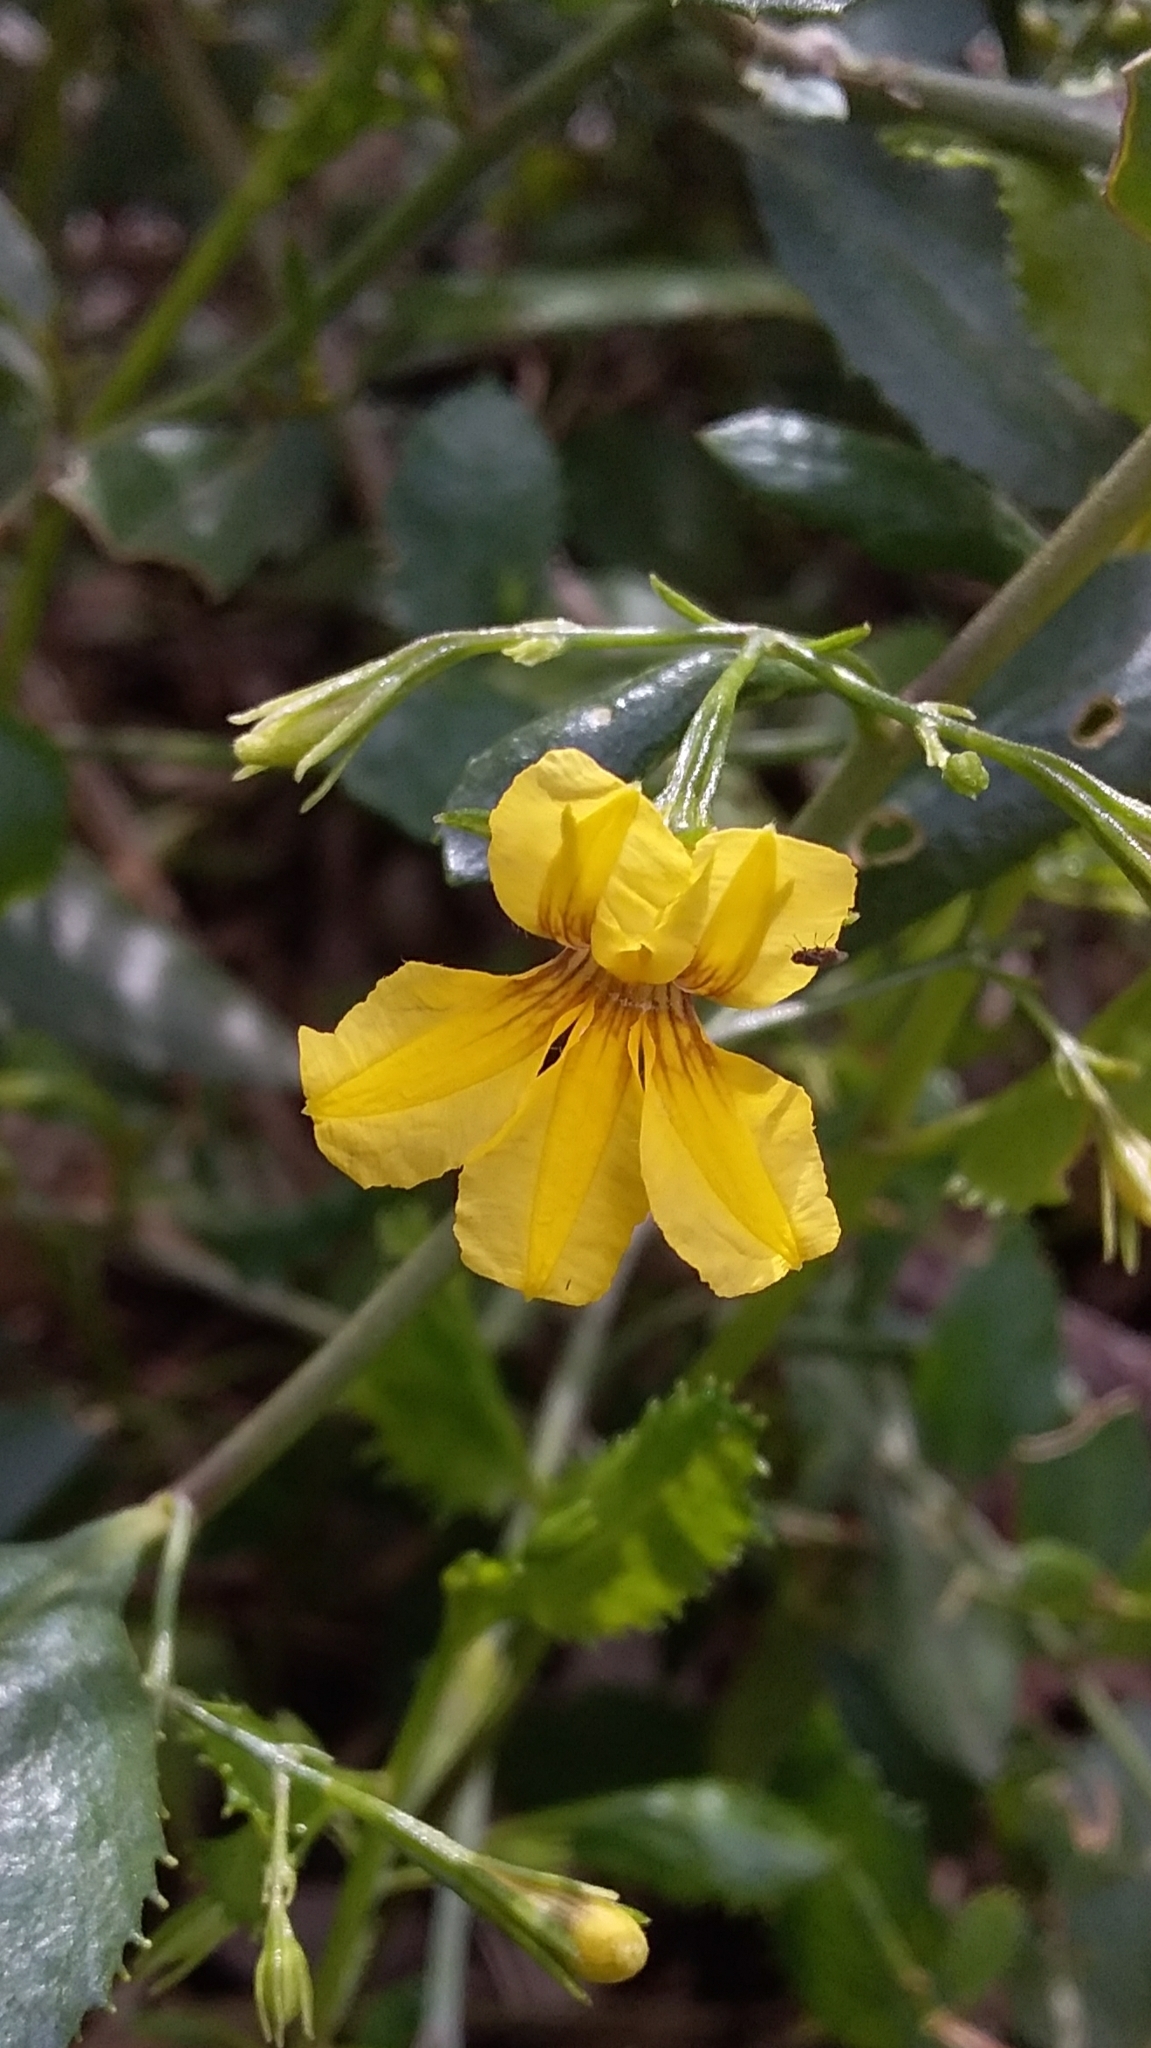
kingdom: Plantae
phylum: Tracheophyta
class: Magnoliopsida
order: Asterales
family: Goodeniaceae
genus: Goodenia
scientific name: Goodenia ovata
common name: Hop goodenia
